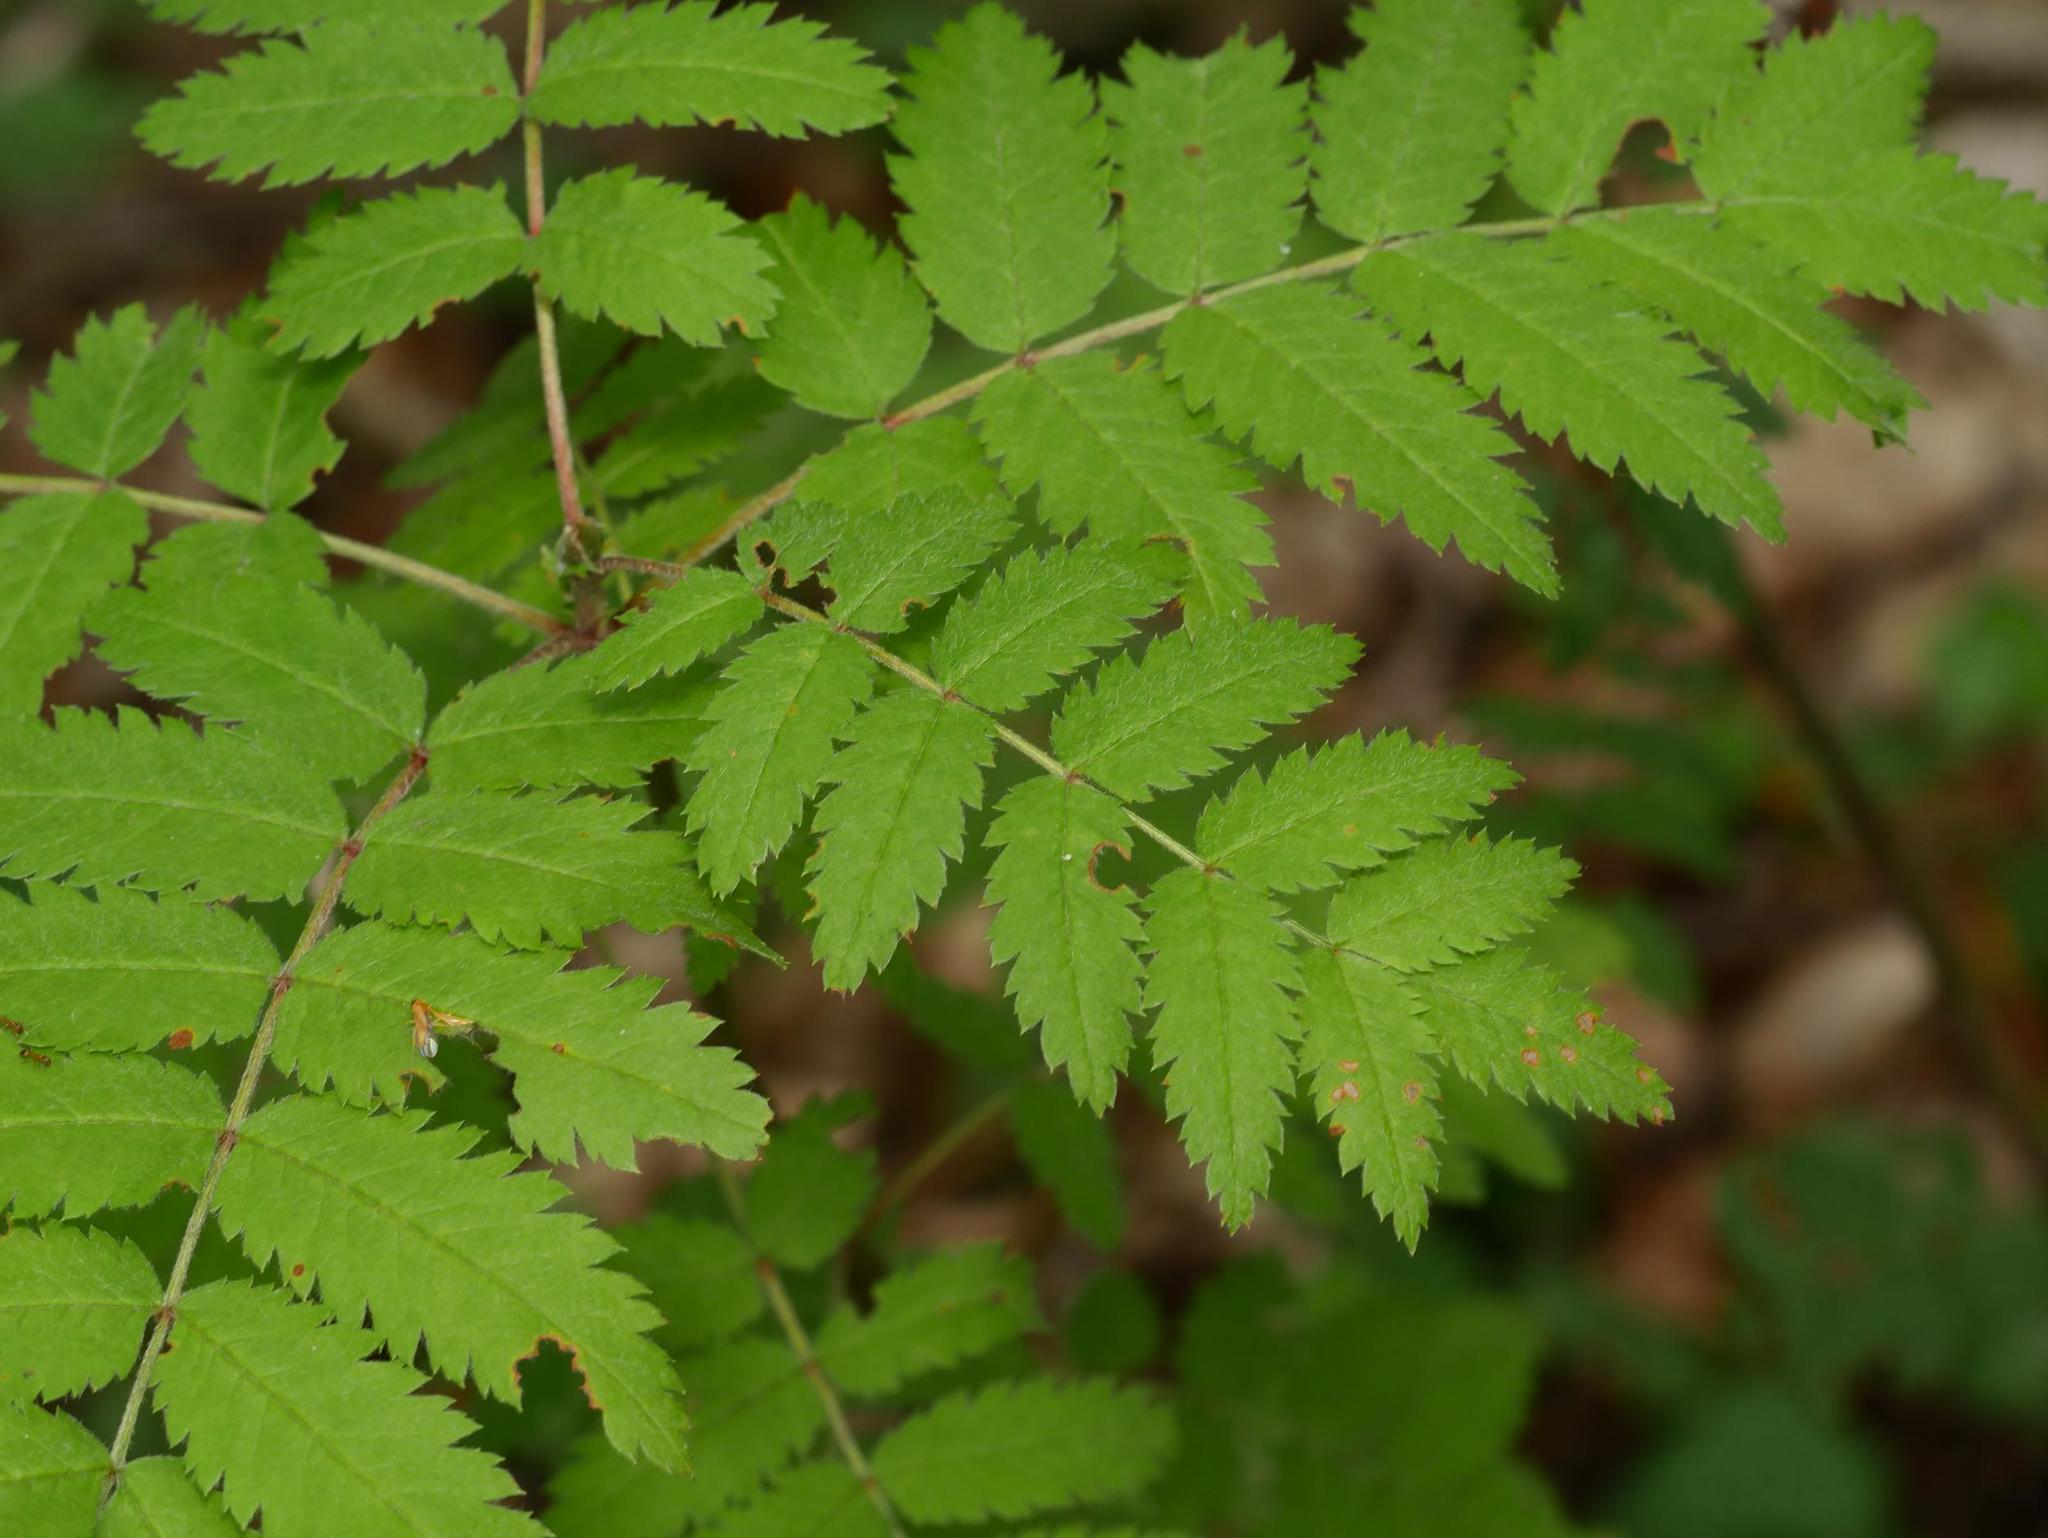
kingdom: Plantae
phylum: Tracheophyta
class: Magnoliopsida
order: Rosales
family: Rosaceae
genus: Sorbus
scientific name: Sorbus aucuparia
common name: Rowan
